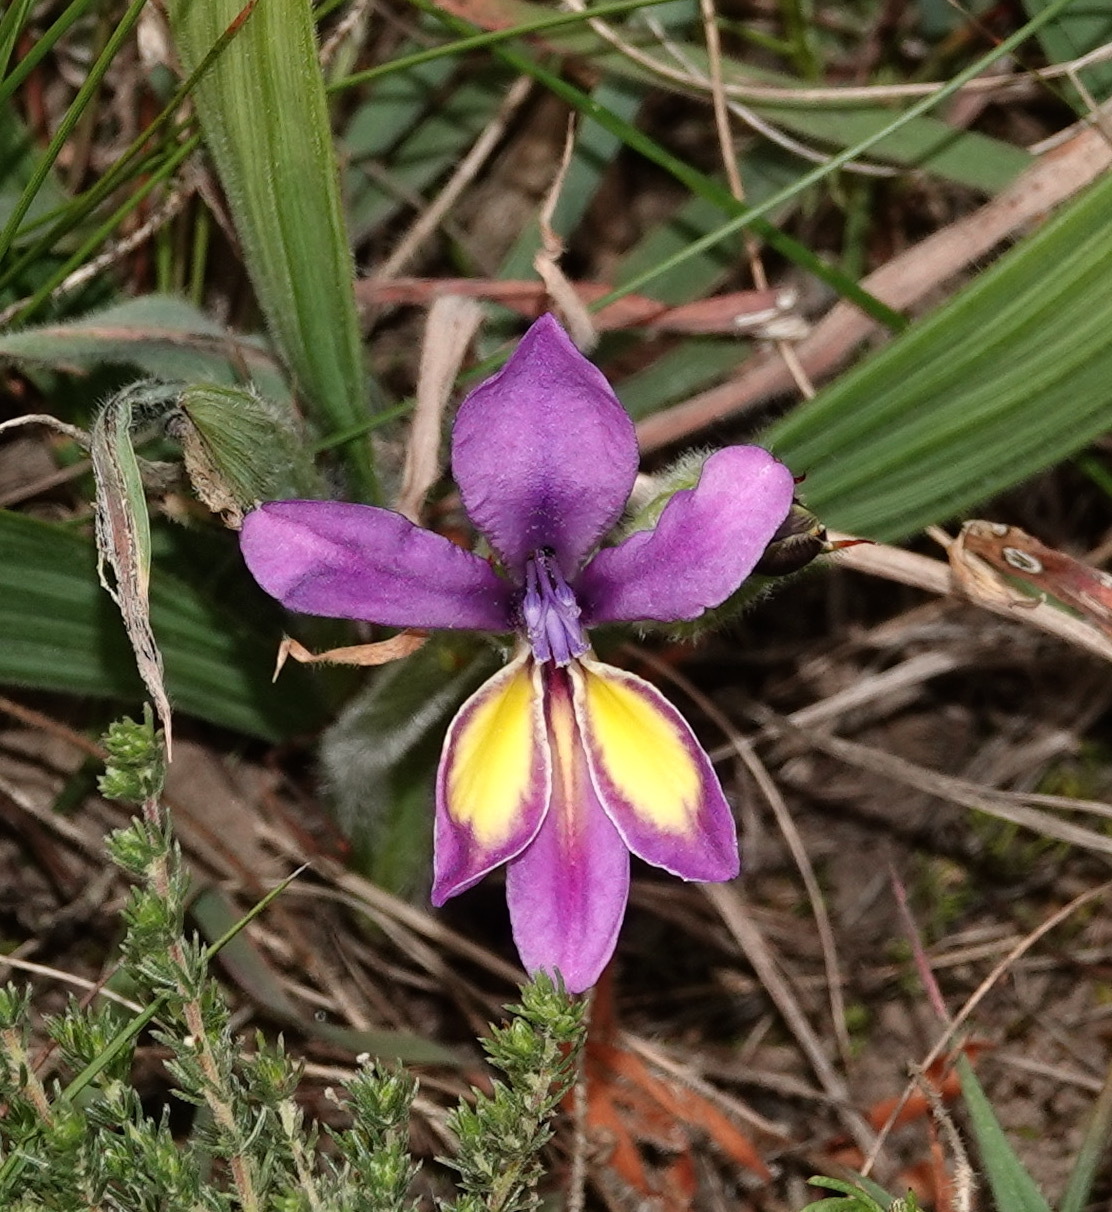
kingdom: Plantae
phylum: Tracheophyta
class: Liliopsida
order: Asparagales
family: Iridaceae
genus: Babiana
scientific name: Babiana patula
